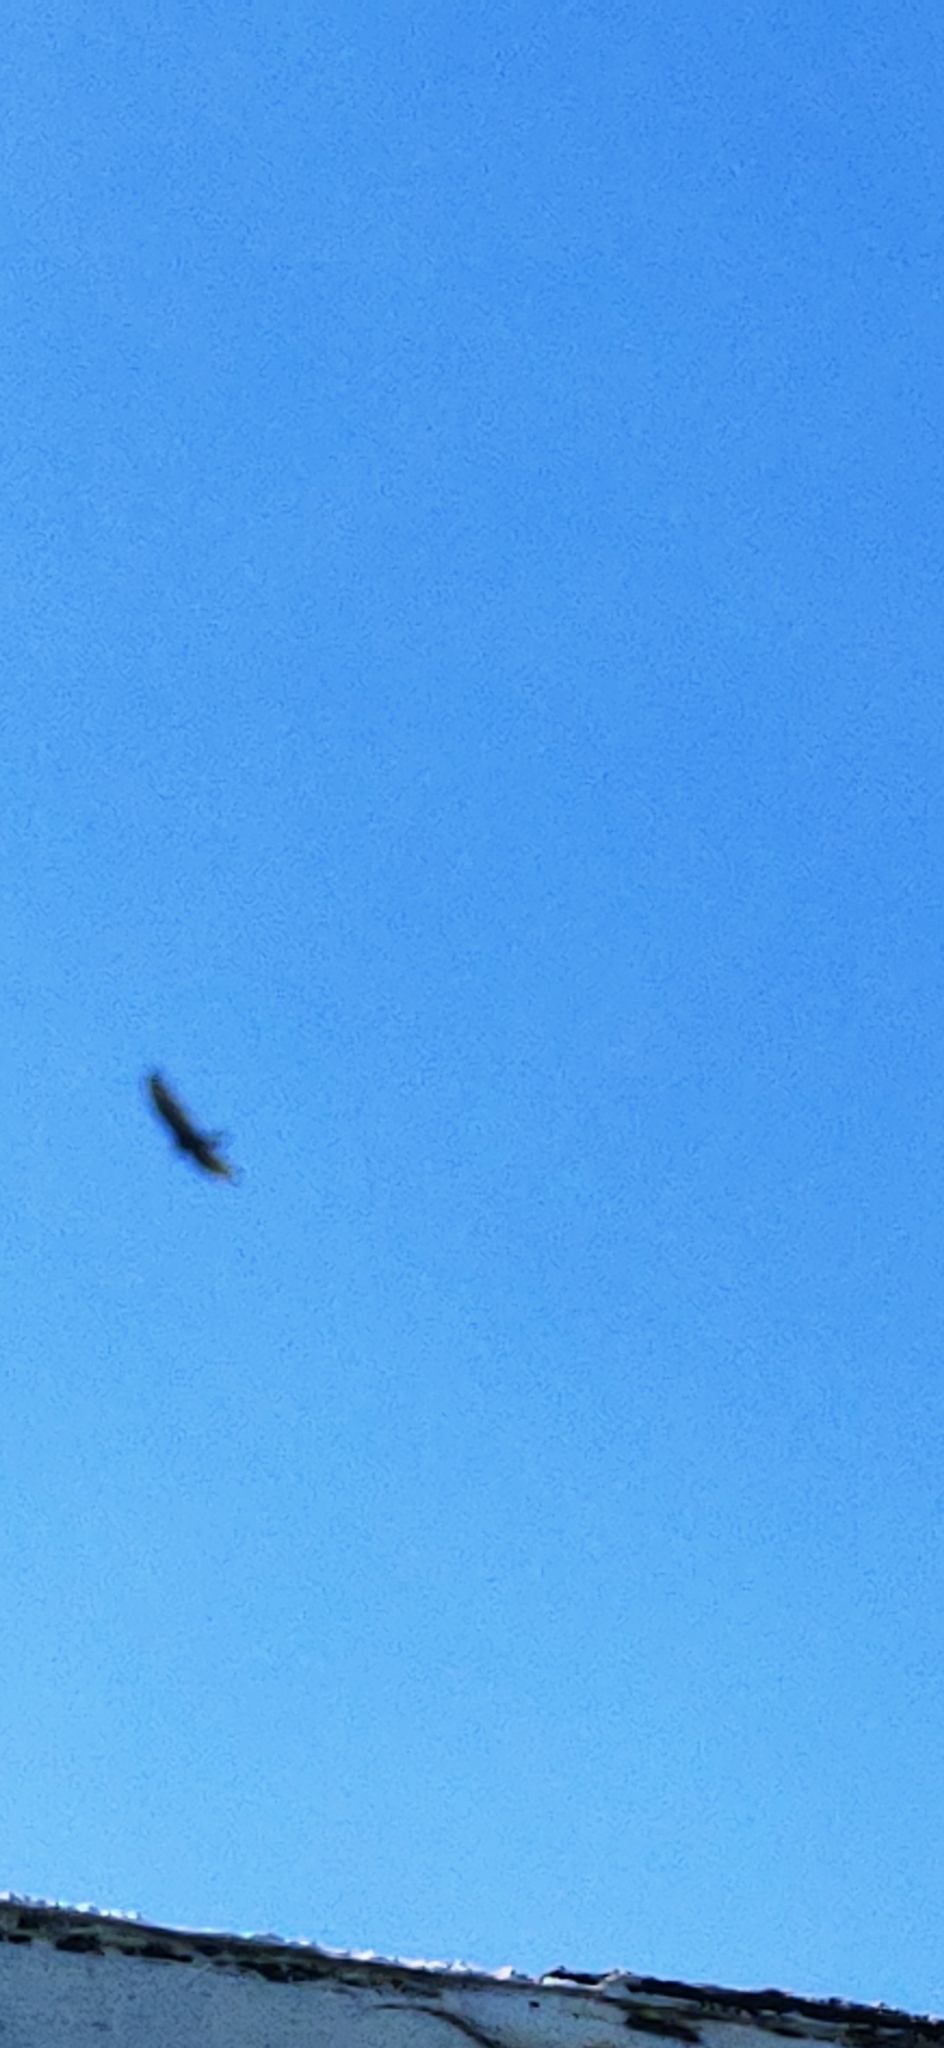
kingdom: Animalia
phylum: Chordata
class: Aves
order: Accipitriformes
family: Cathartidae
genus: Cathartes
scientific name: Cathartes aura
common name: Turkey vulture
